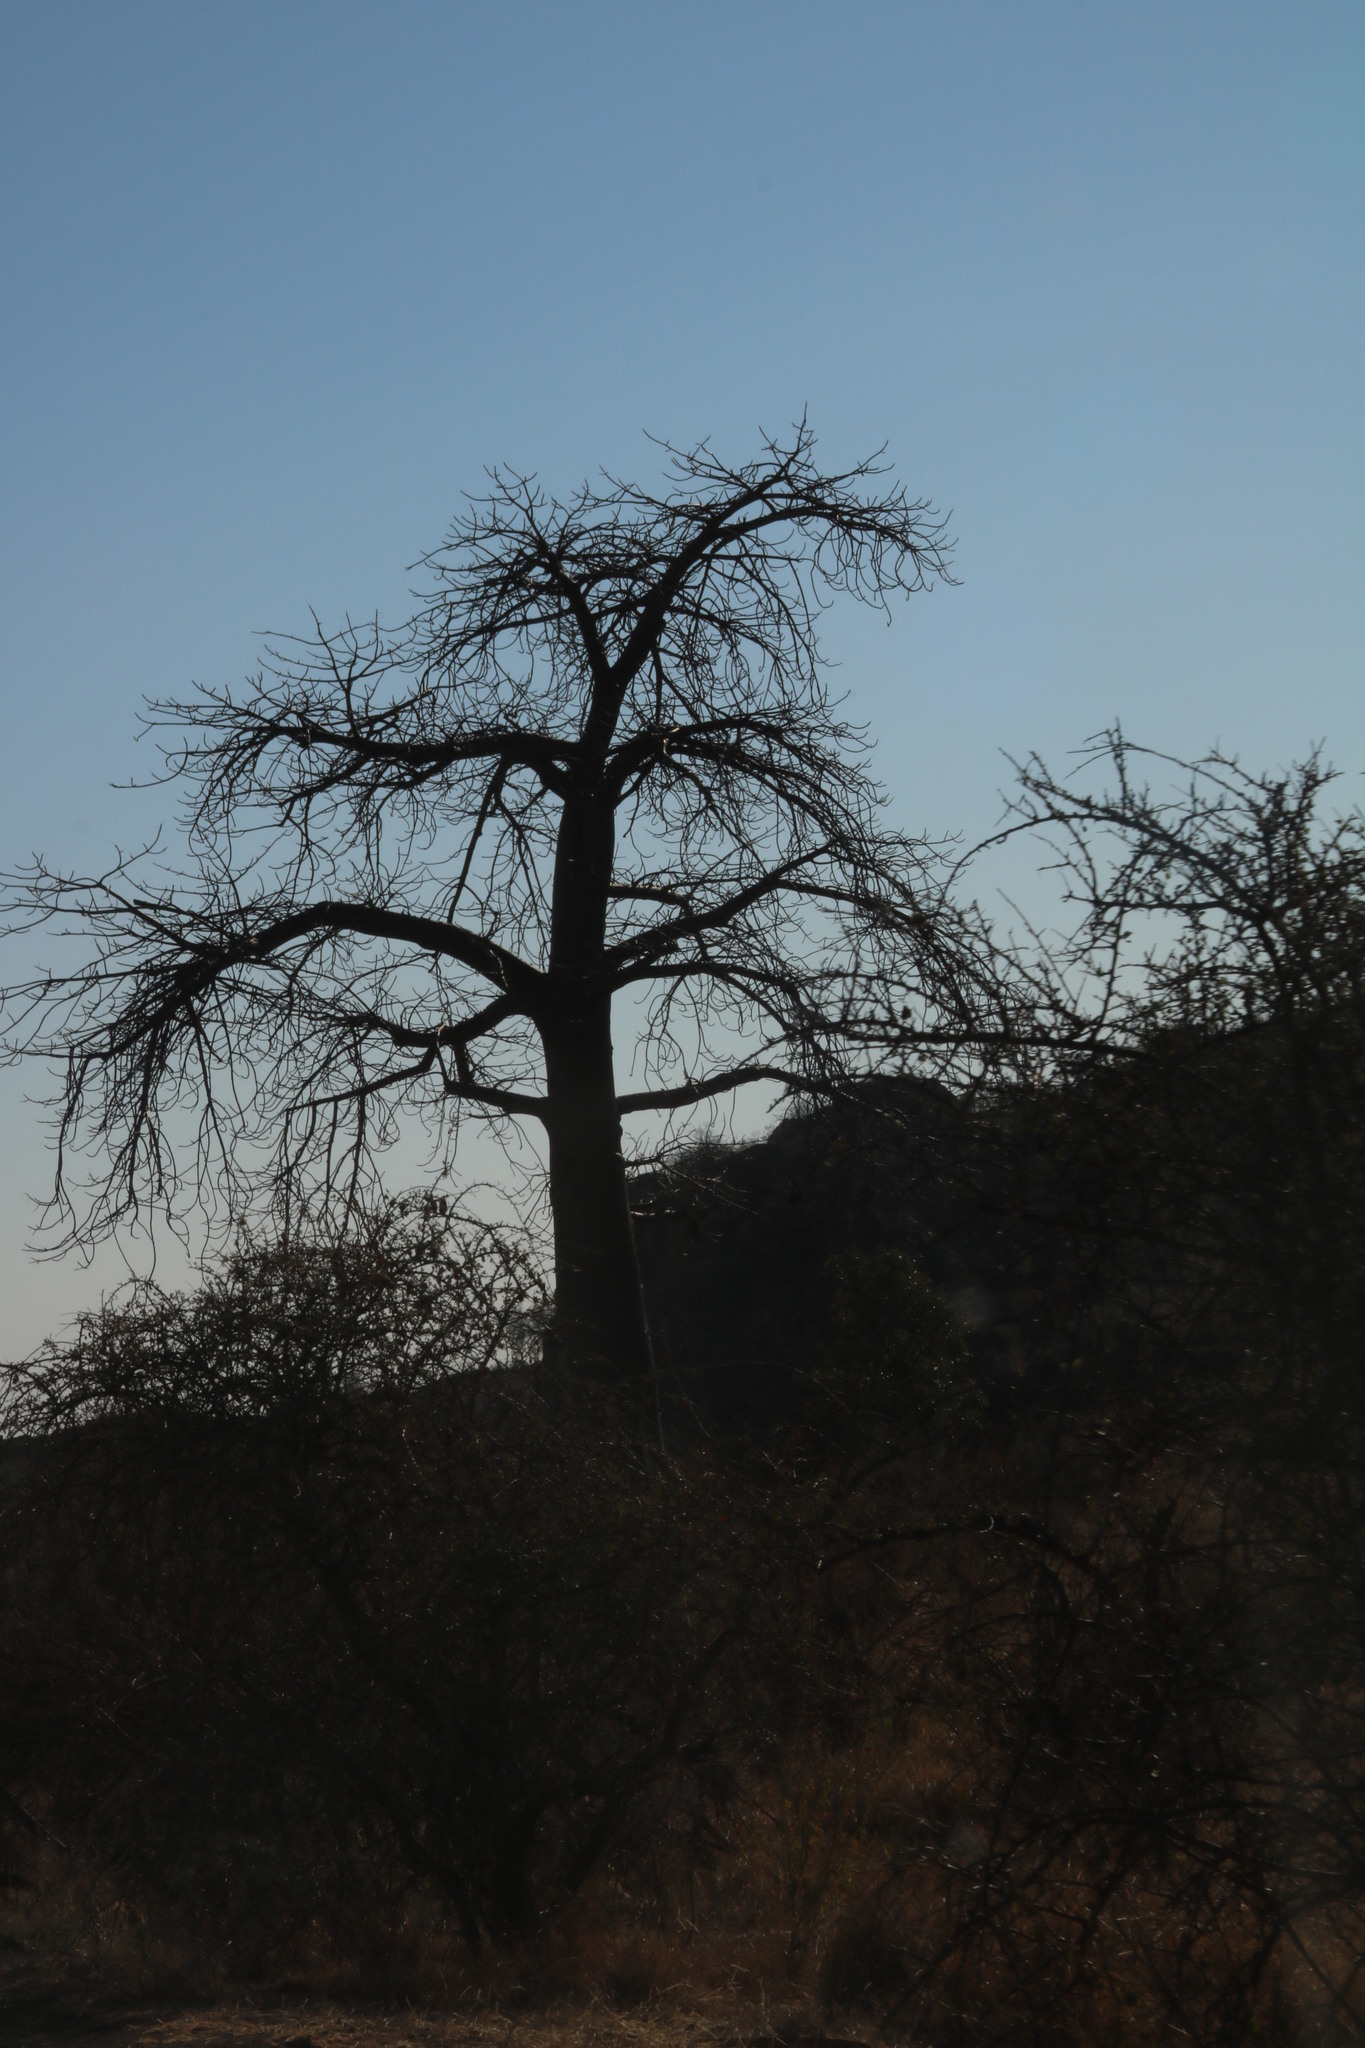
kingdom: Plantae
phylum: Tracheophyta
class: Magnoliopsida
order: Malvales
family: Malvaceae
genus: Adansonia
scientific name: Adansonia digitata
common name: Dead-rat-tree
